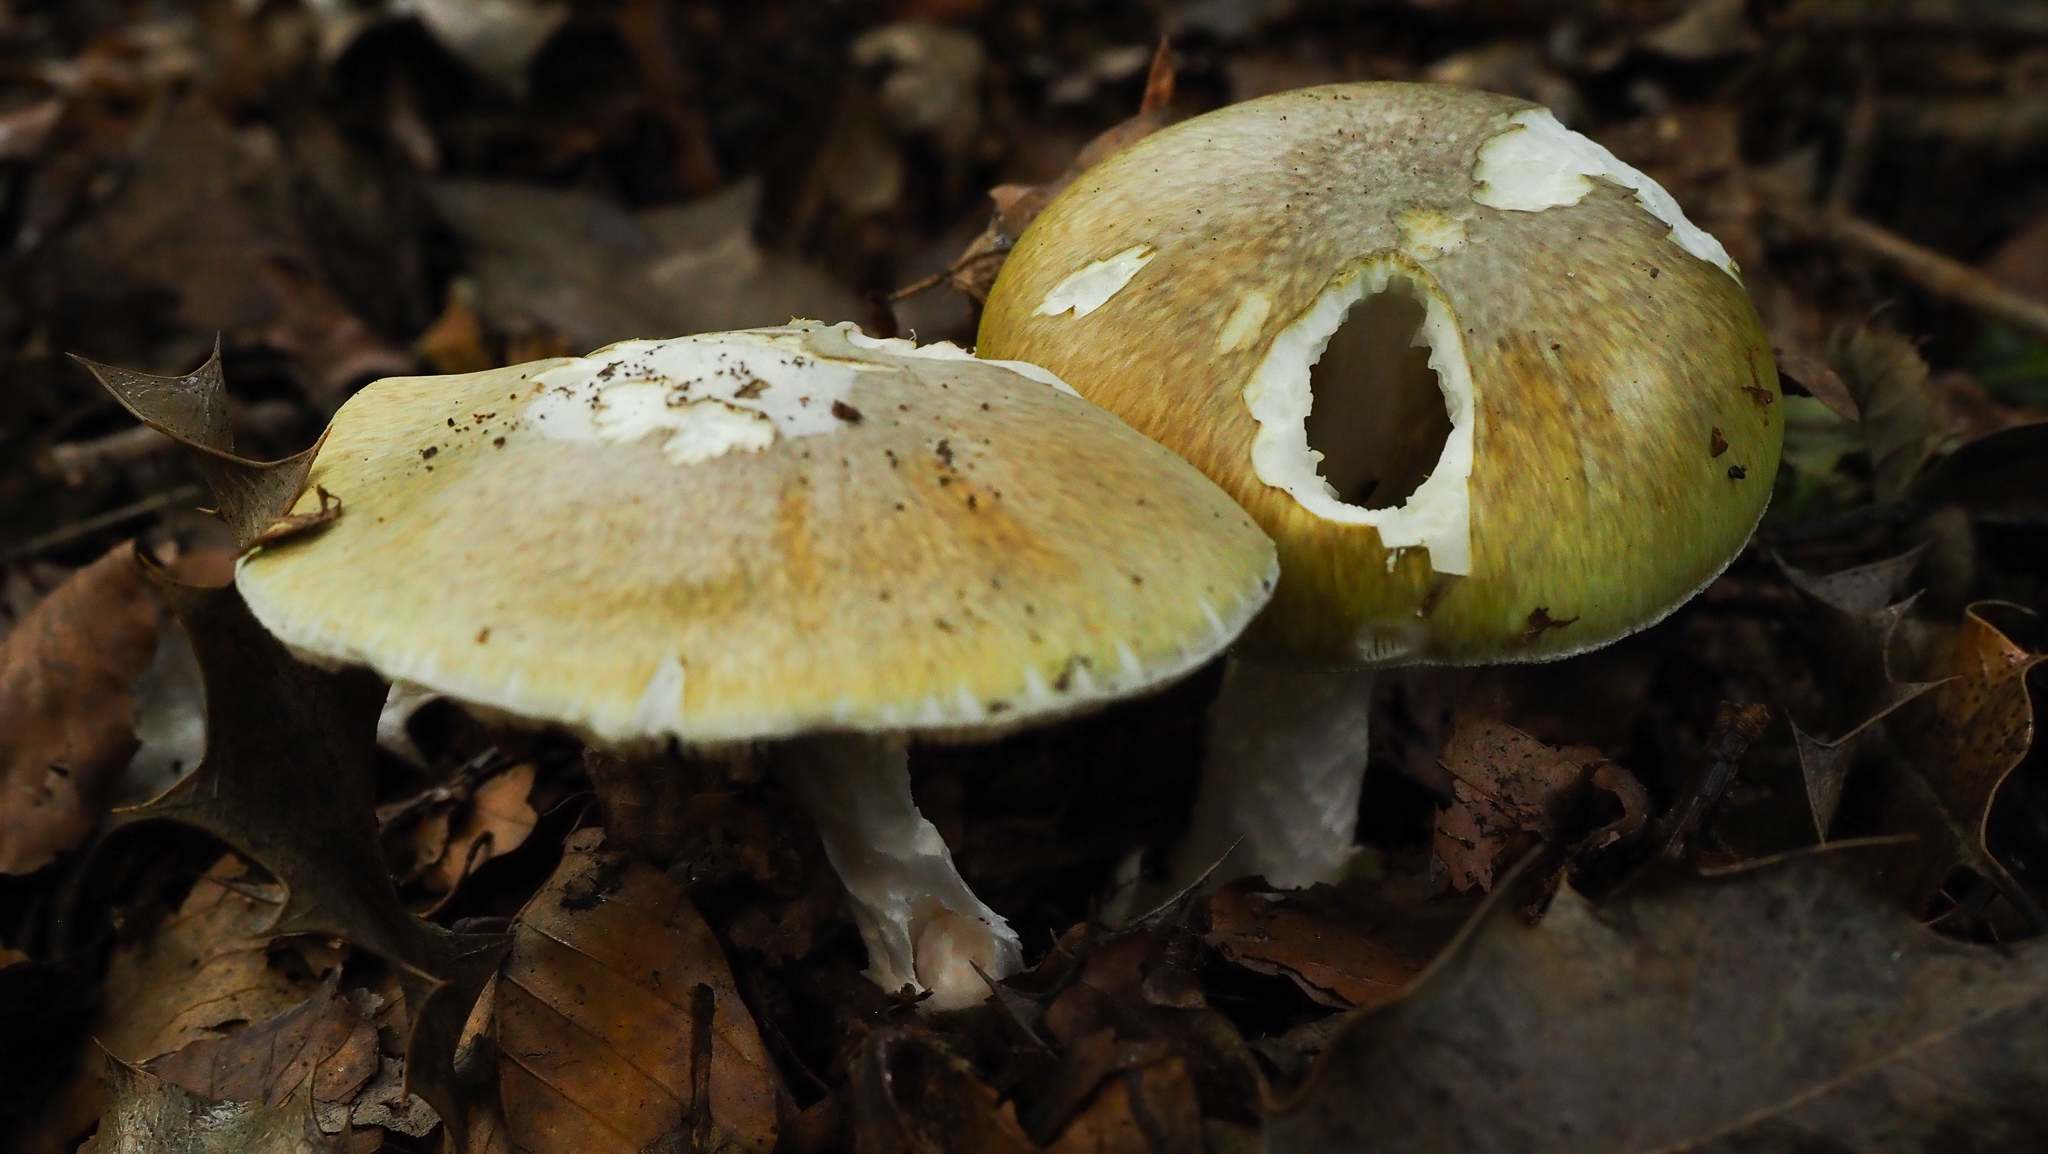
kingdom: Fungi
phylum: Basidiomycota
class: Agaricomycetes
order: Agaricales
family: Amanitaceae
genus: Amanita
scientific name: Amanita phalloides
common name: Death cap
